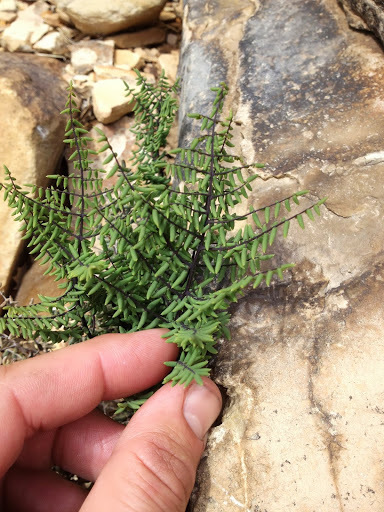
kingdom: Plantae
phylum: Tracheophyta
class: Polypodiopsida
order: Polypodiales
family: Pteridaceae
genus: Pellaea
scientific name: Pellaea mucronata
